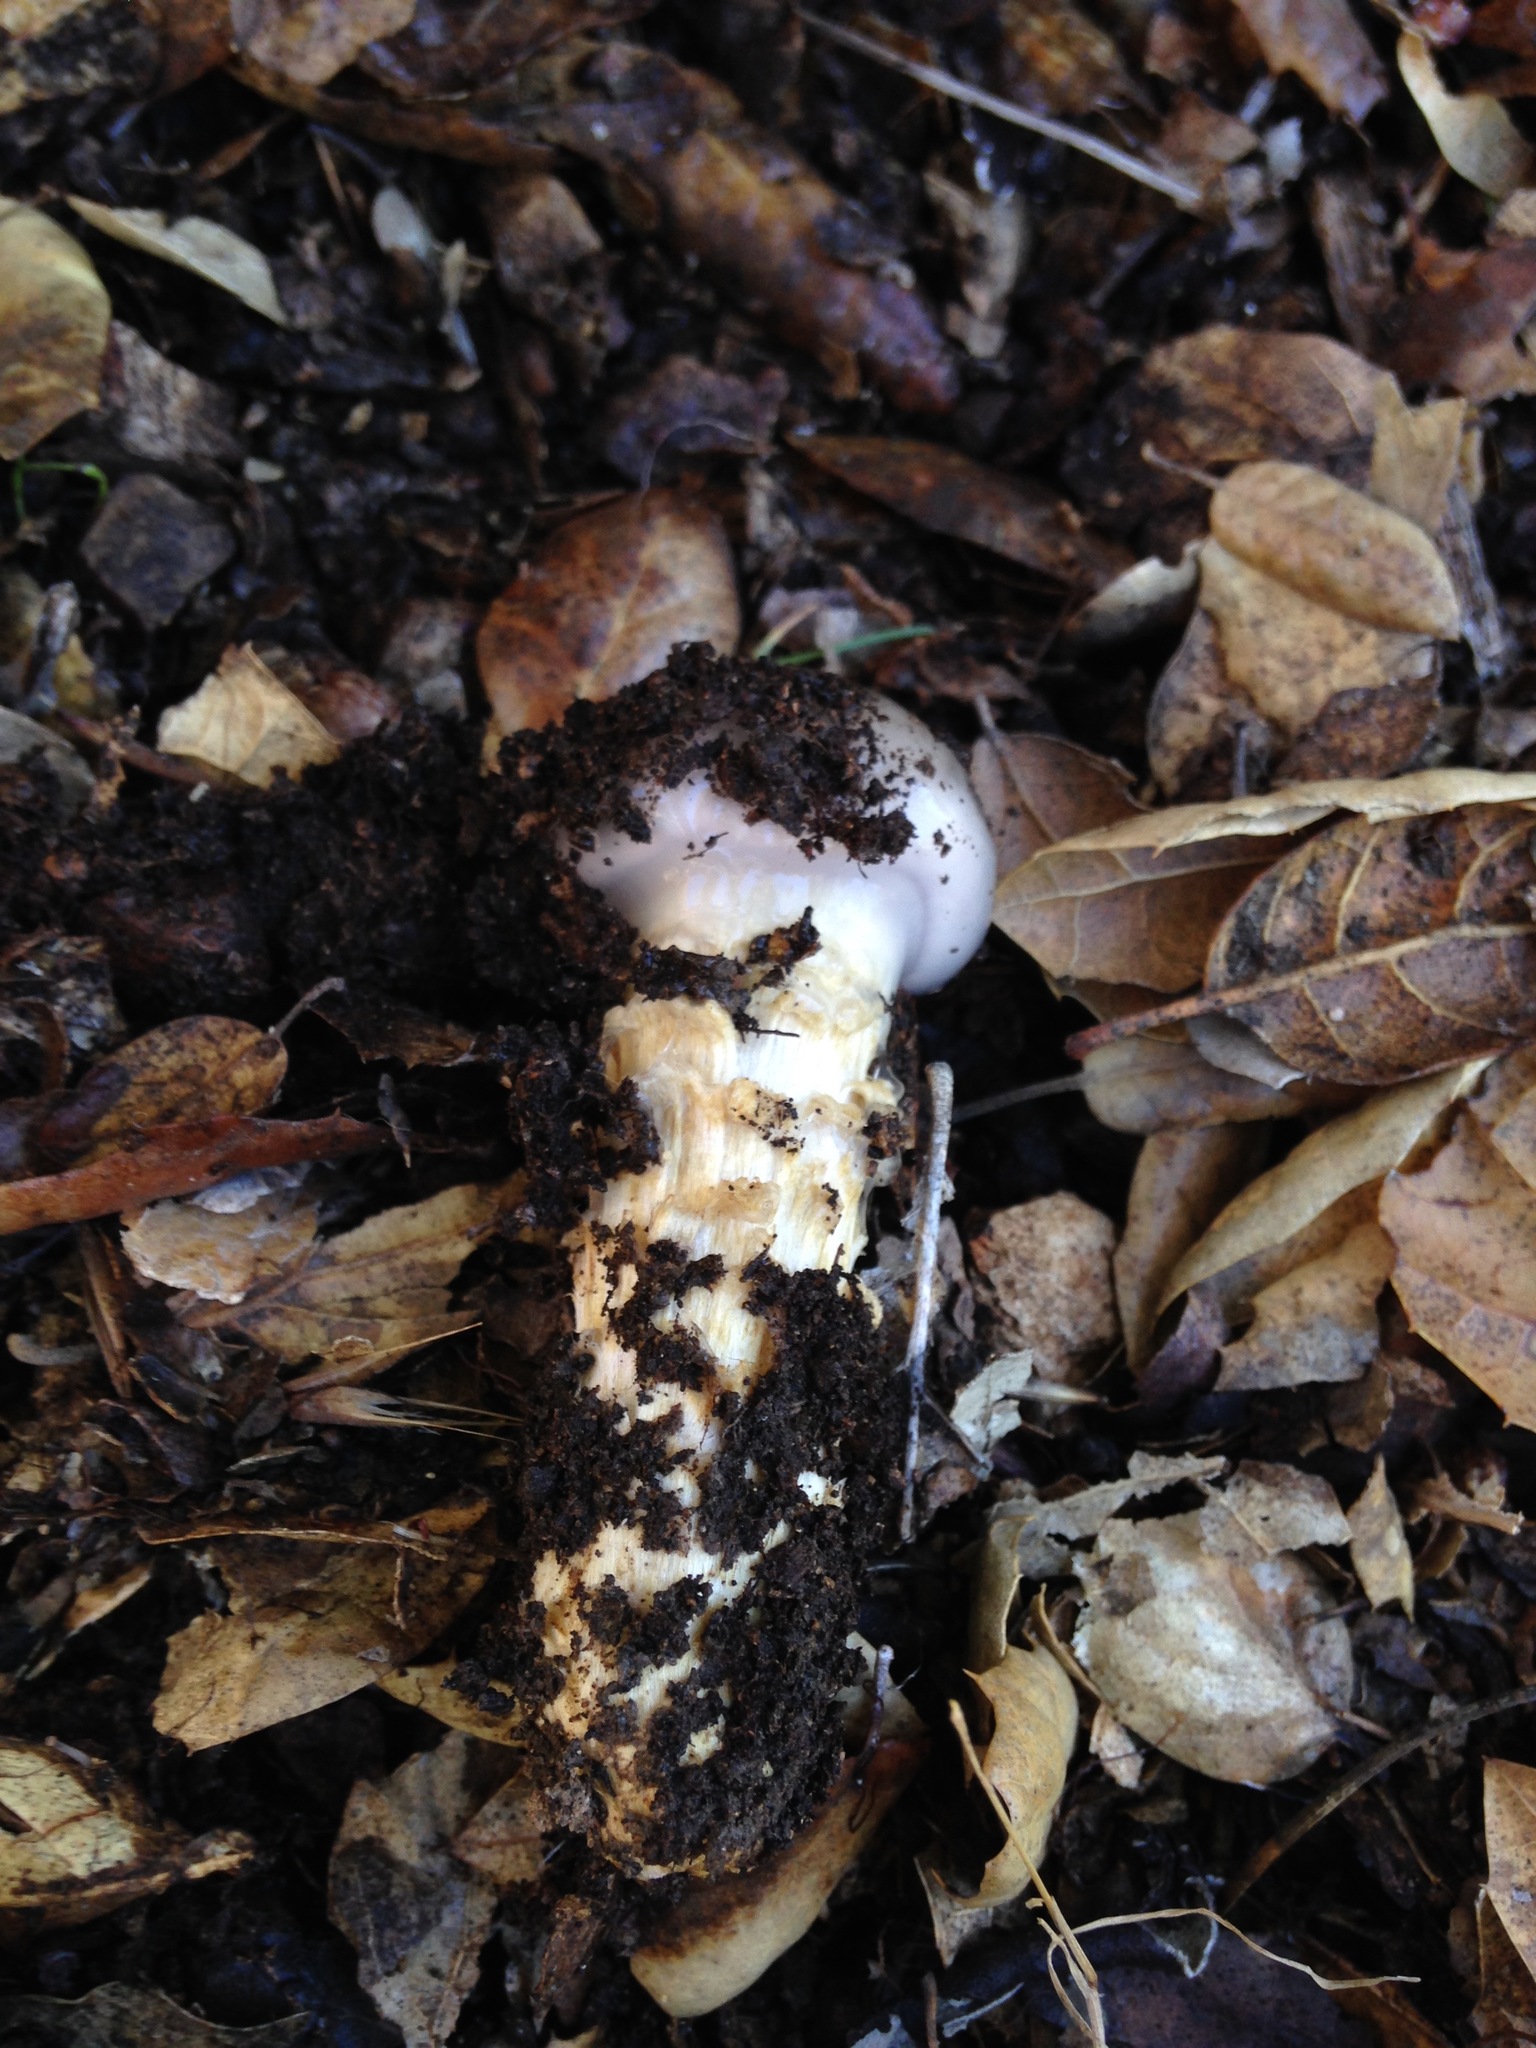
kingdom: Fungi
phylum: Basidiomycota
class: Agaricomycetes
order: Agaricales
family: Cortinariaceae
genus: Cortinarius
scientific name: Cortinarius glutinosoarmillatus
